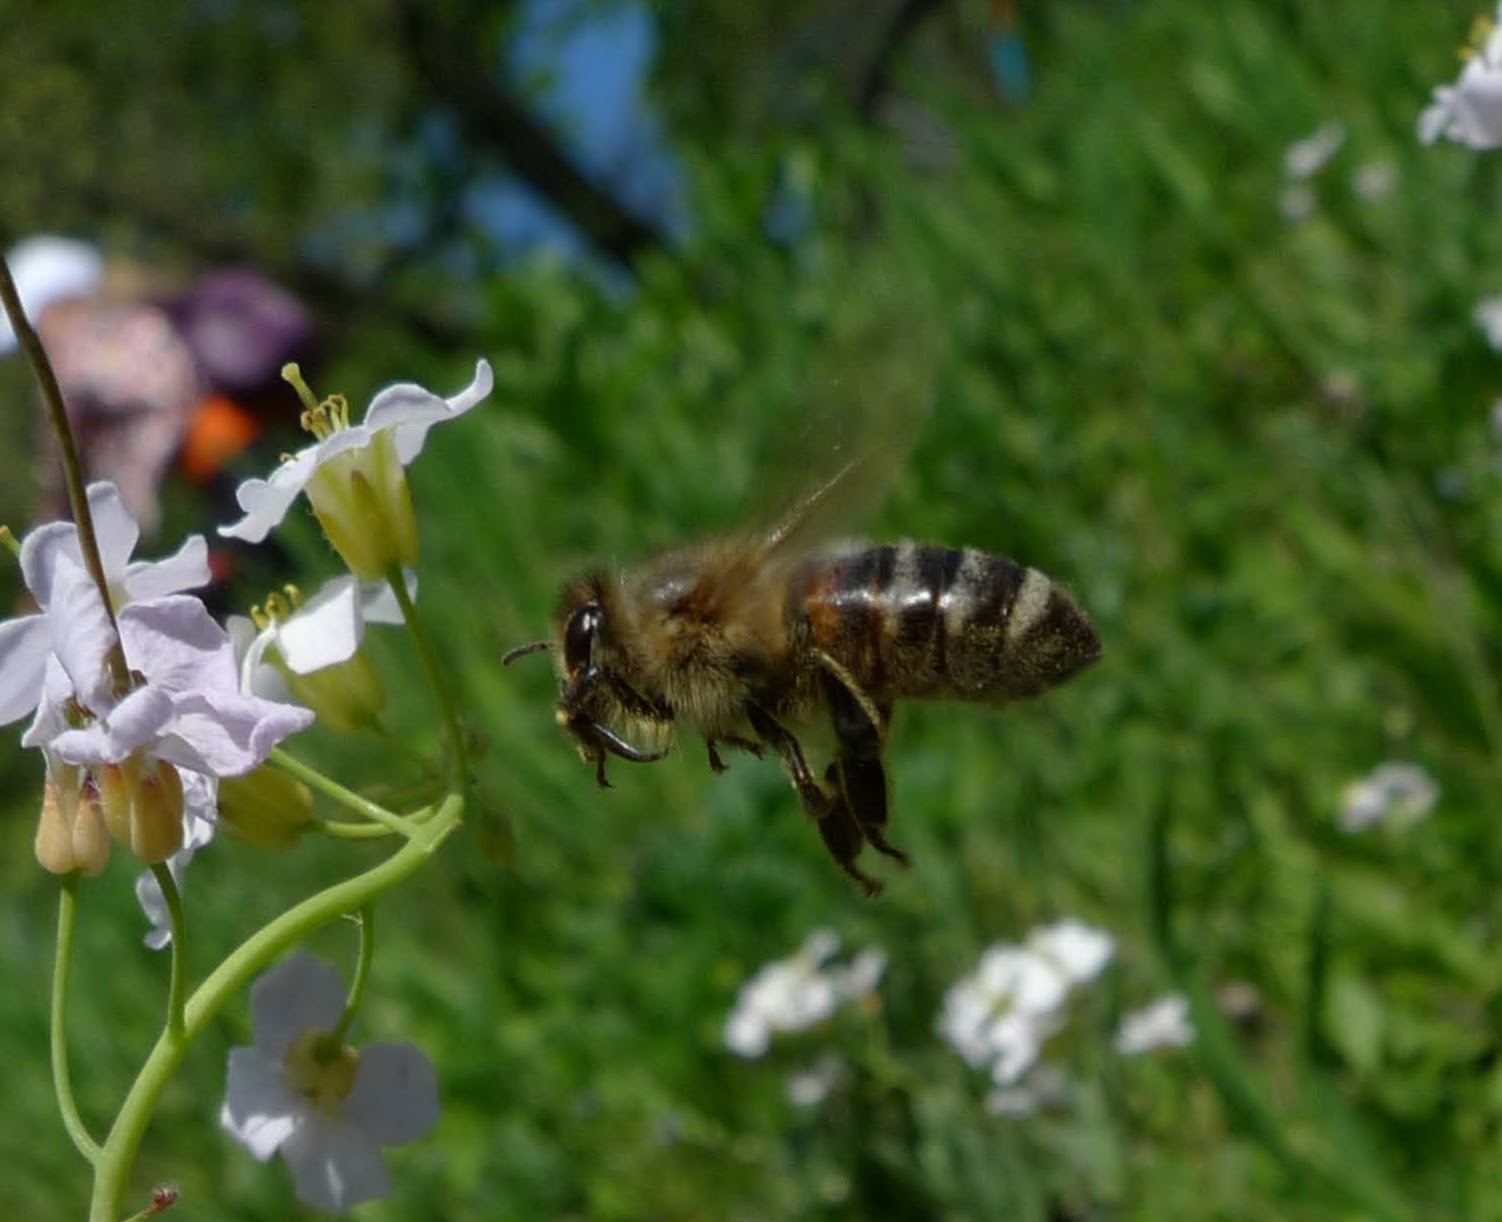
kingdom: Animalia
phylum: Arthropoda
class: Insecta
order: Hymenoptera
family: Apidae
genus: Apis
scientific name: Apis mellifera
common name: Honey bee
